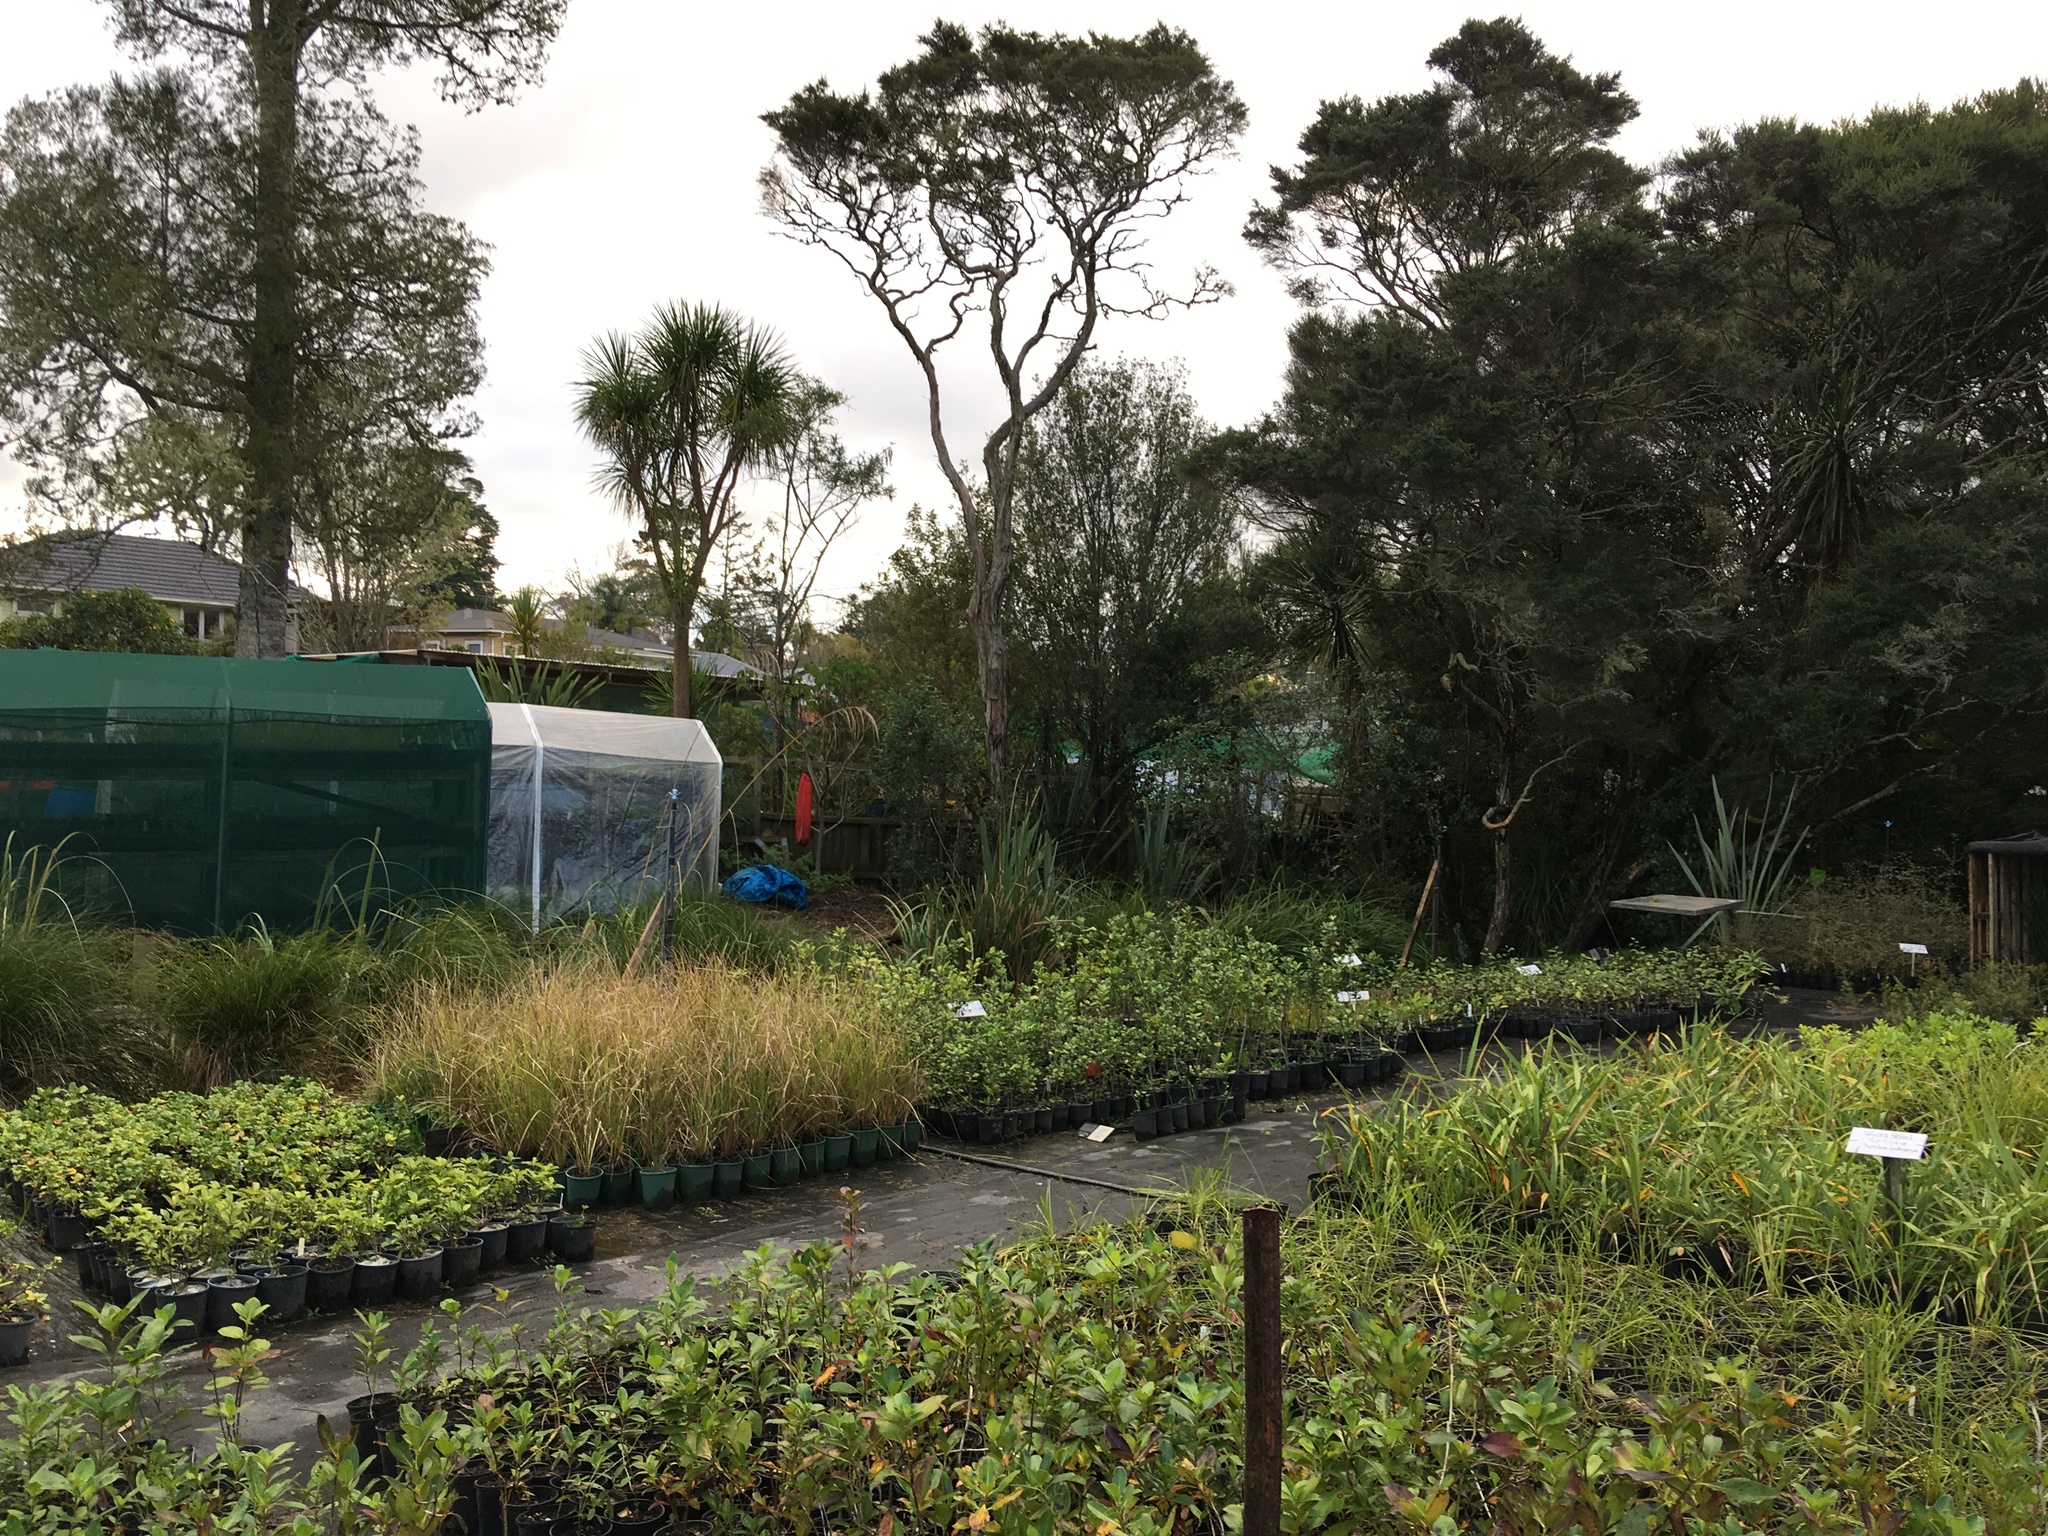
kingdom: Plantae
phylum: Tracheophyta
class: Pinopsida
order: Pinales
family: Podocarpaceae
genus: Dacrycarpus
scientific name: Dacrycarpus dacrydioides
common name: White pine
